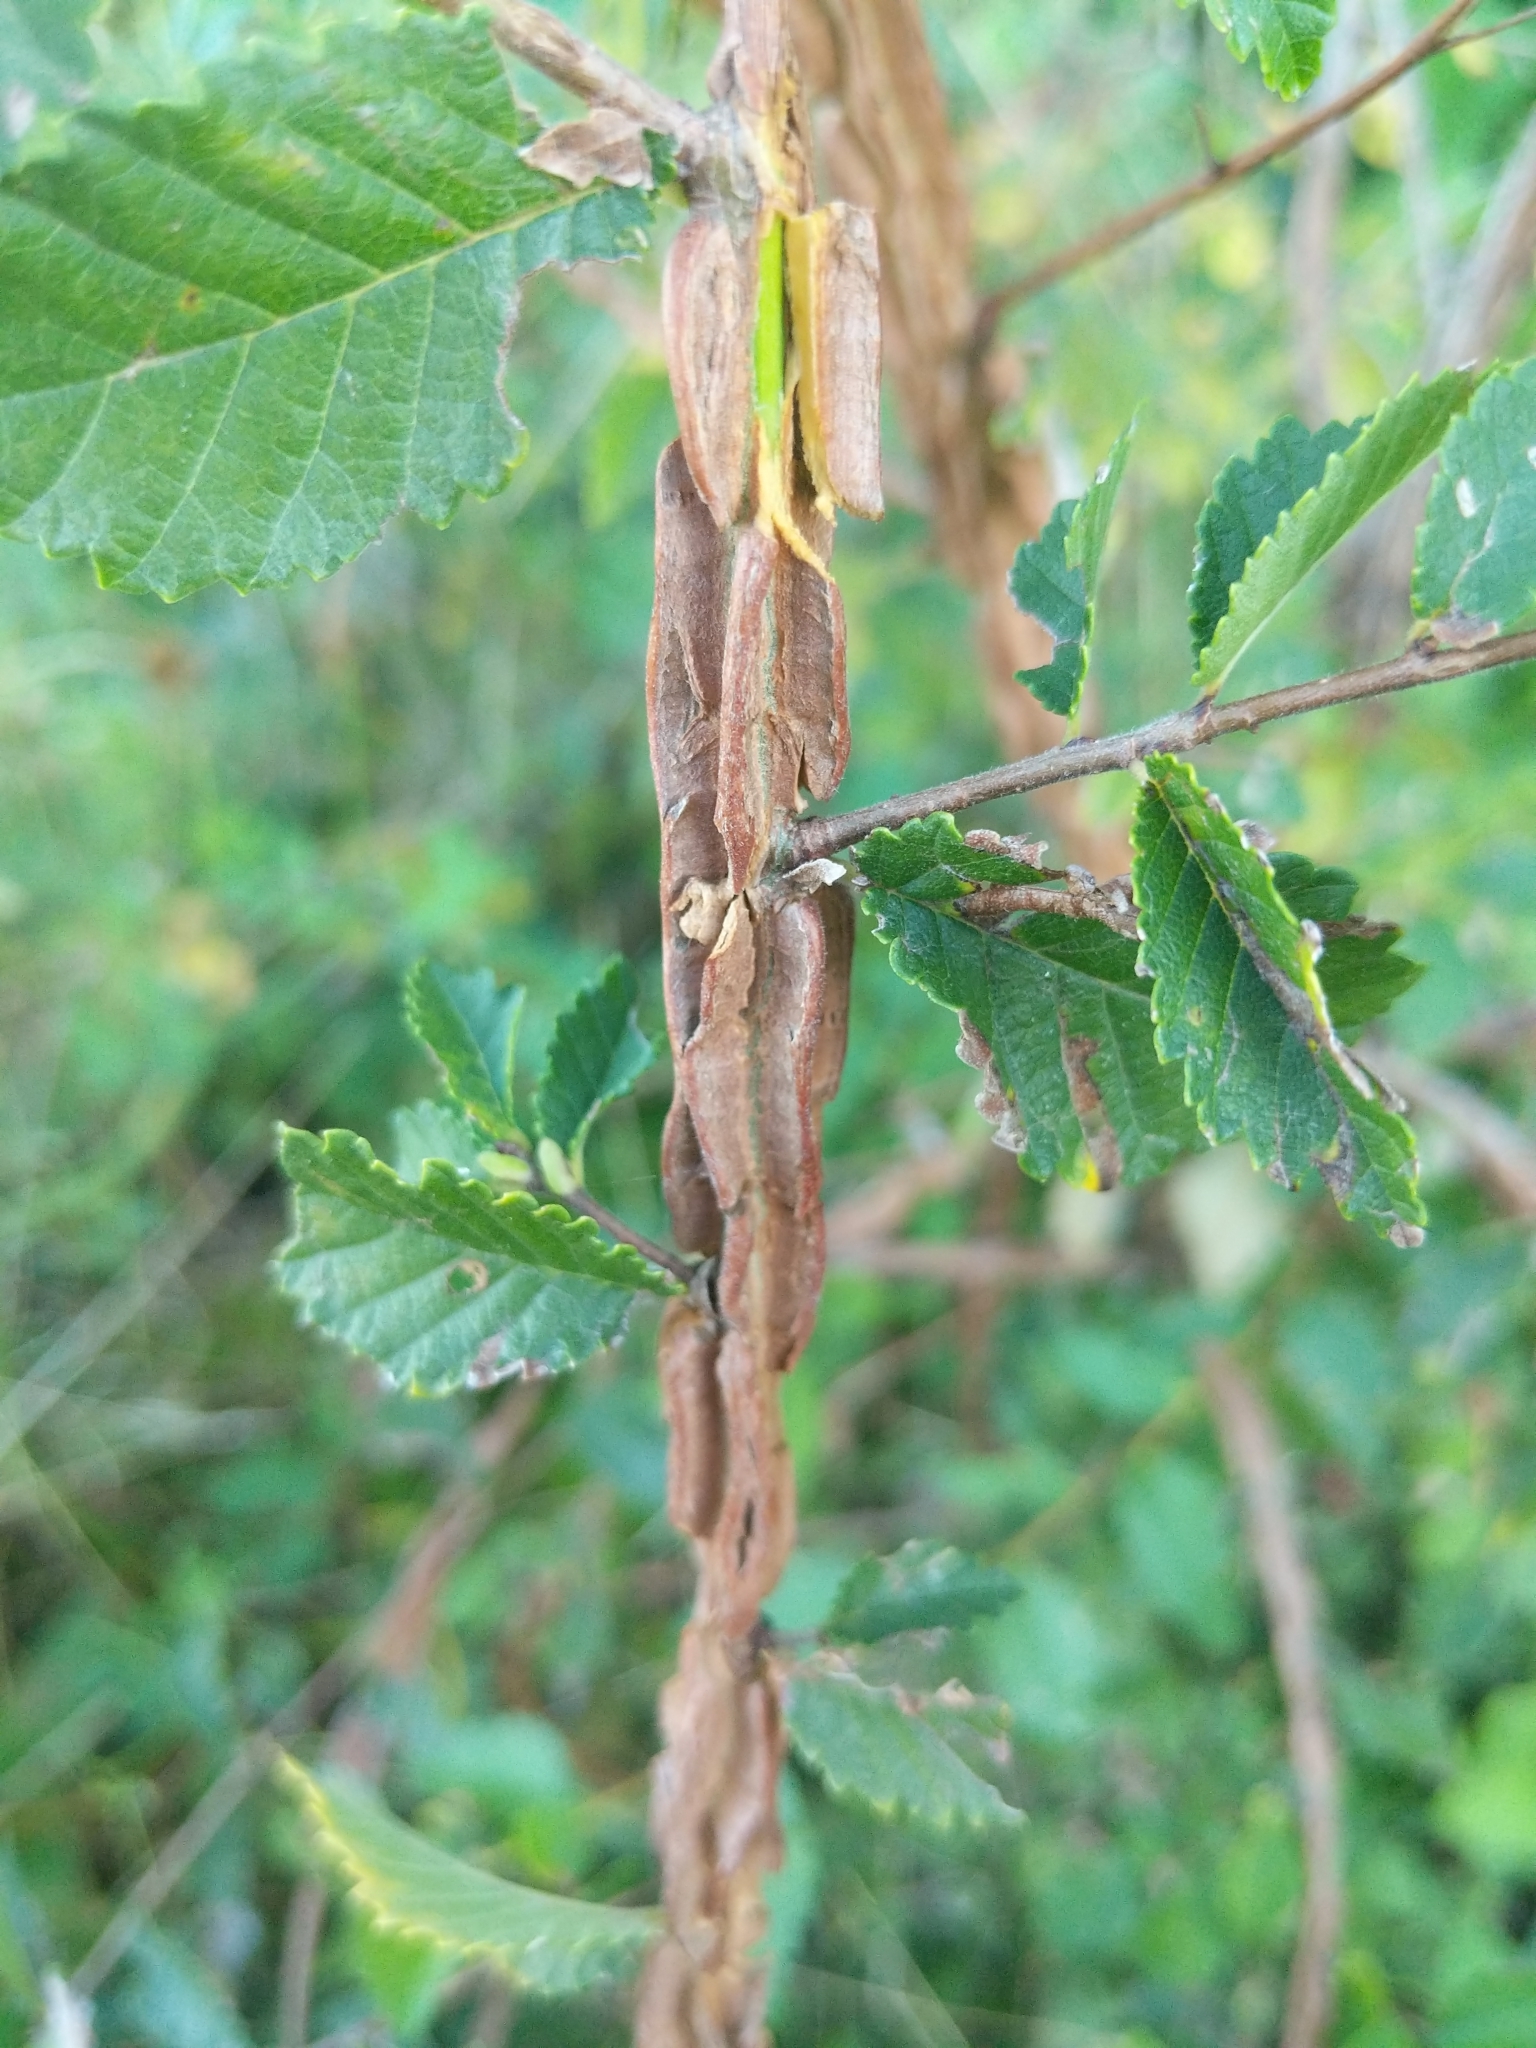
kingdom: Plantae
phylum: Tracheophyta
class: Magnoliopsida
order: Rosales
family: Ulmaceae
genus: Ulmus
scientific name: Ulmus minor
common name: Small-leaved elm
